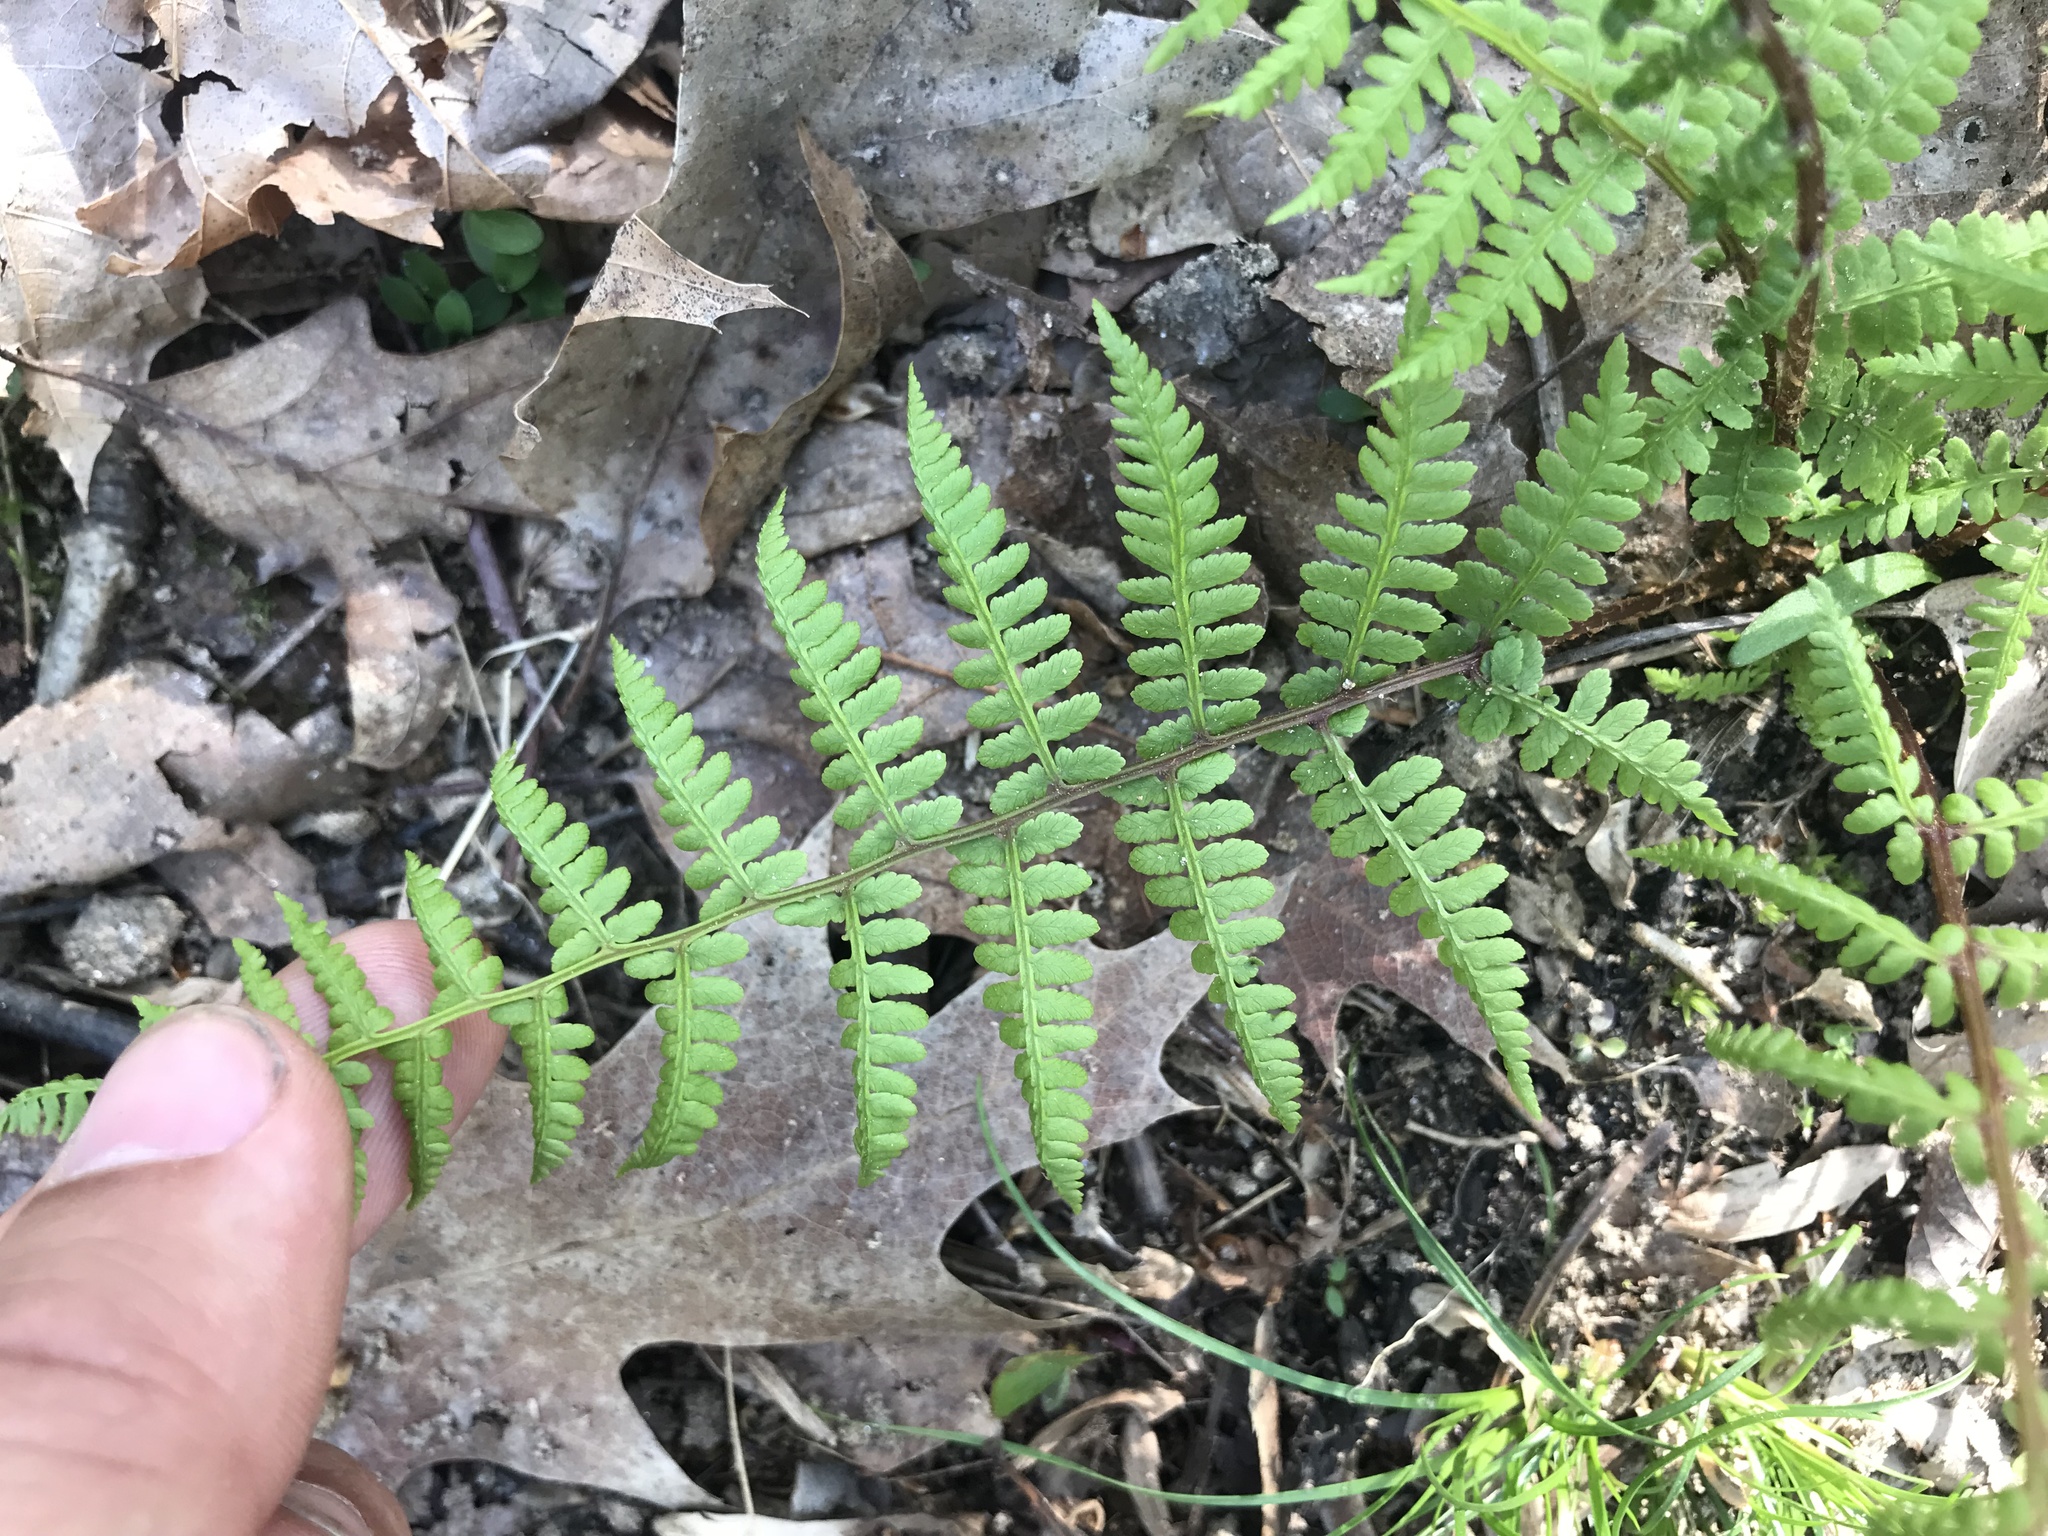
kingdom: Plantae
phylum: Tracheophyta
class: Polypodiopsida
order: Polypodiales
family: Dryopteridaceae
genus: Dryopteris
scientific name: Dryopteris marginalis
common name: Marginal wood fern
